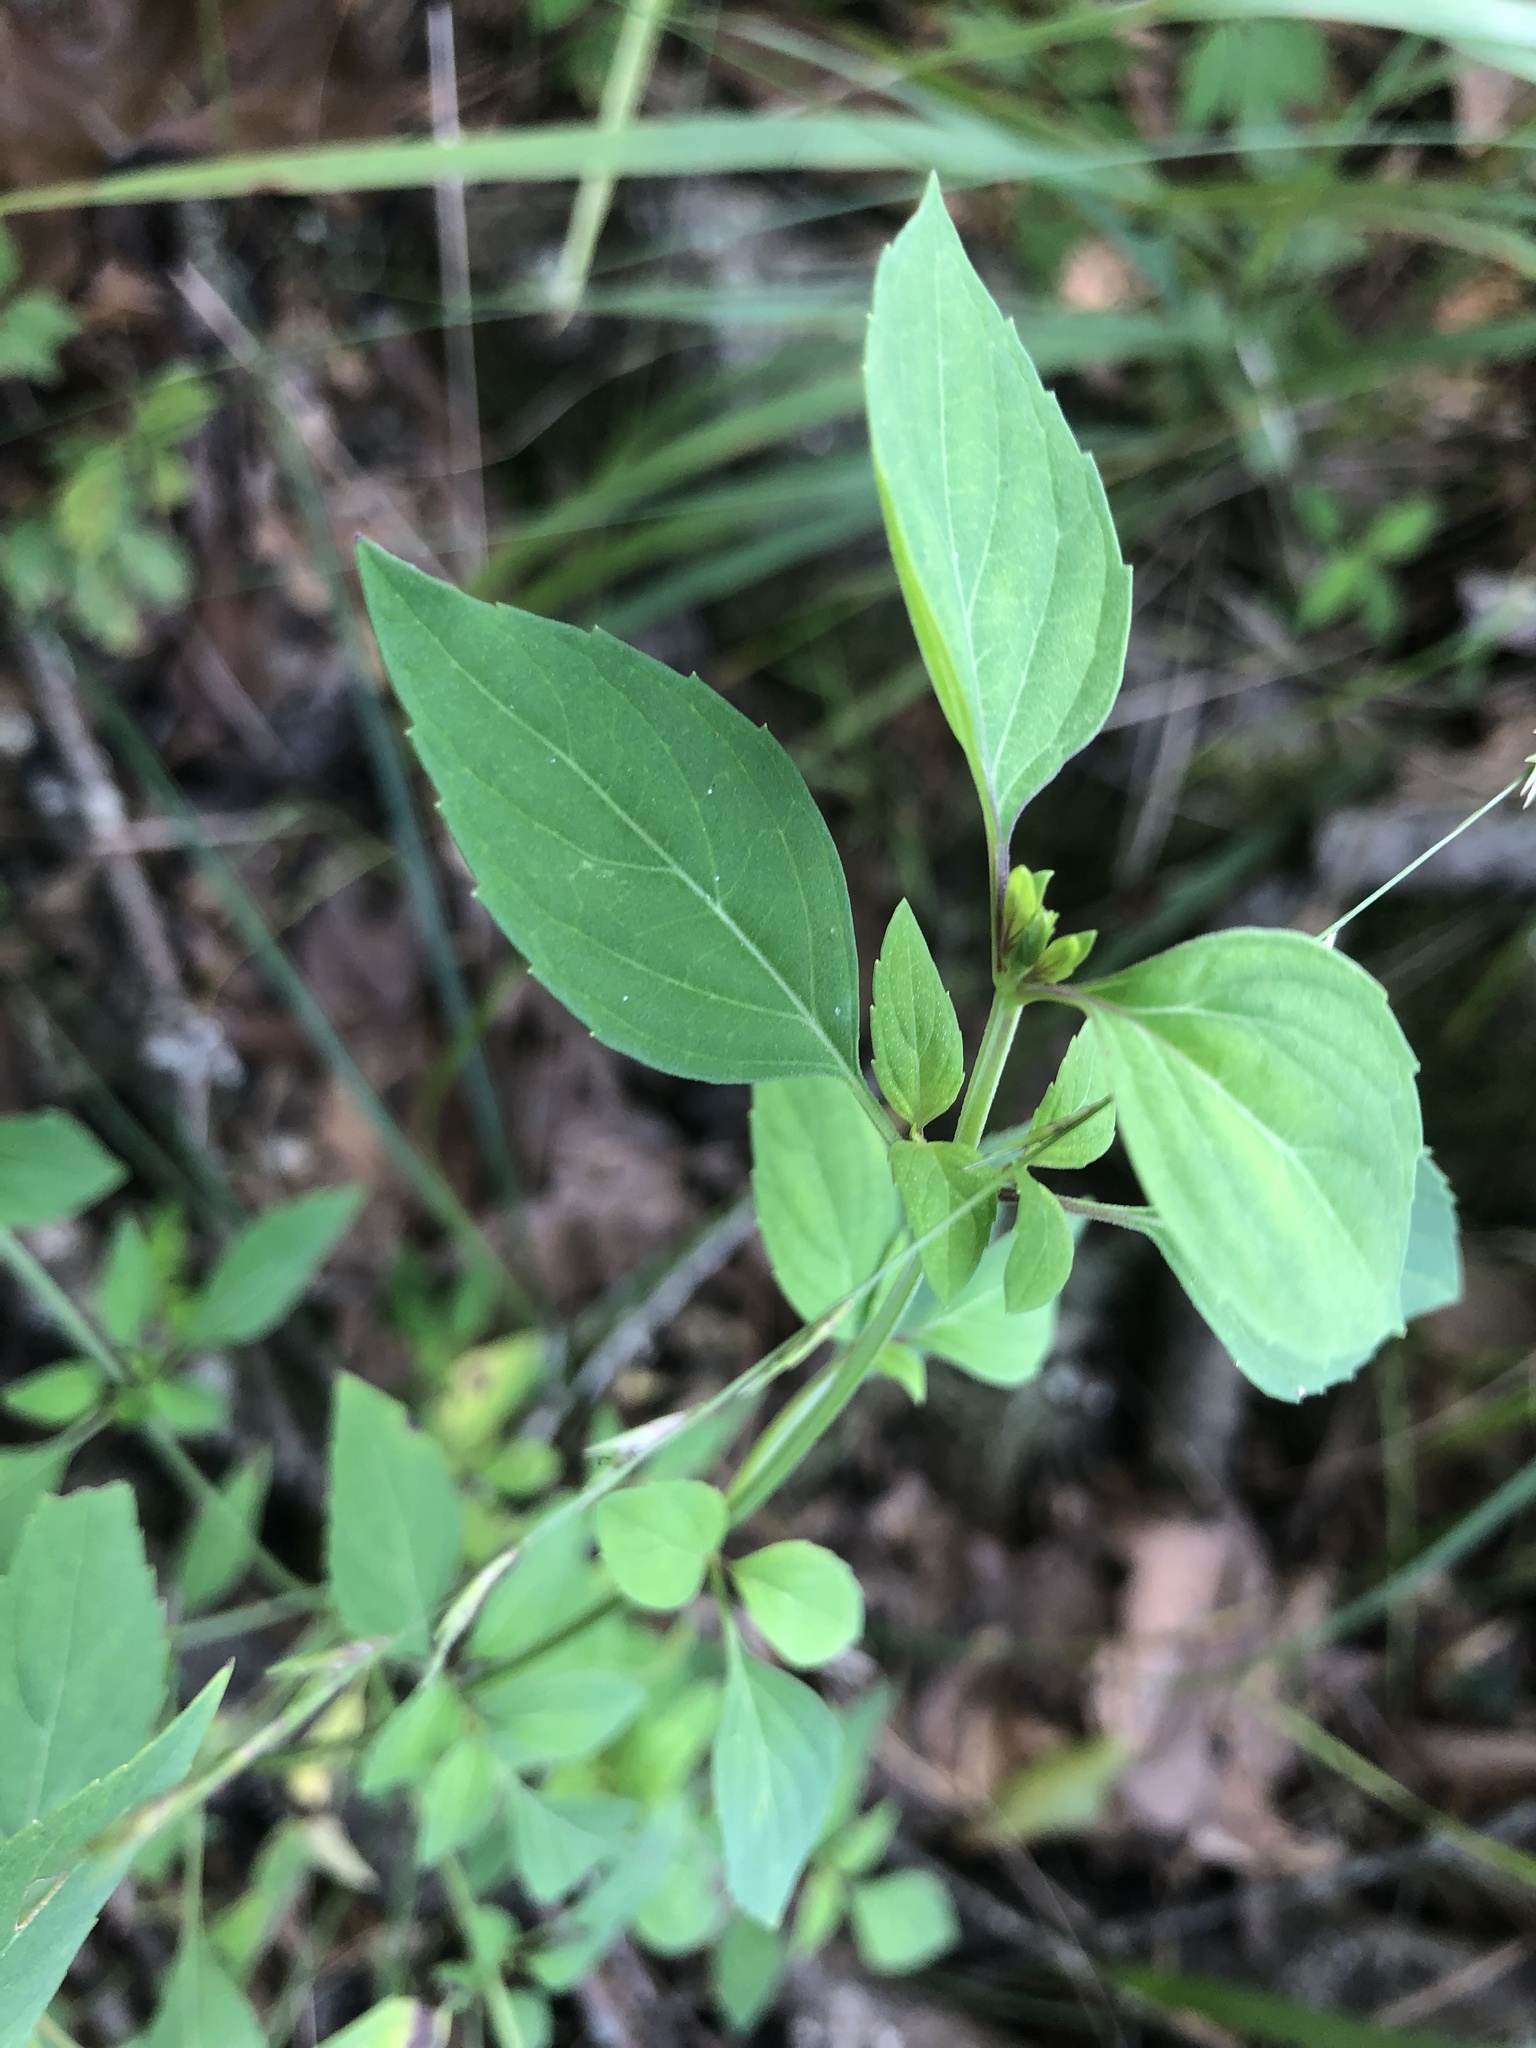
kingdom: Plantae
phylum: Tracheophyta
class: Magnoliopsida
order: Lamiales
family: Lamiaceae
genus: Mosla
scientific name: Mosla dianthera
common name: Miniature beefsteakplant
